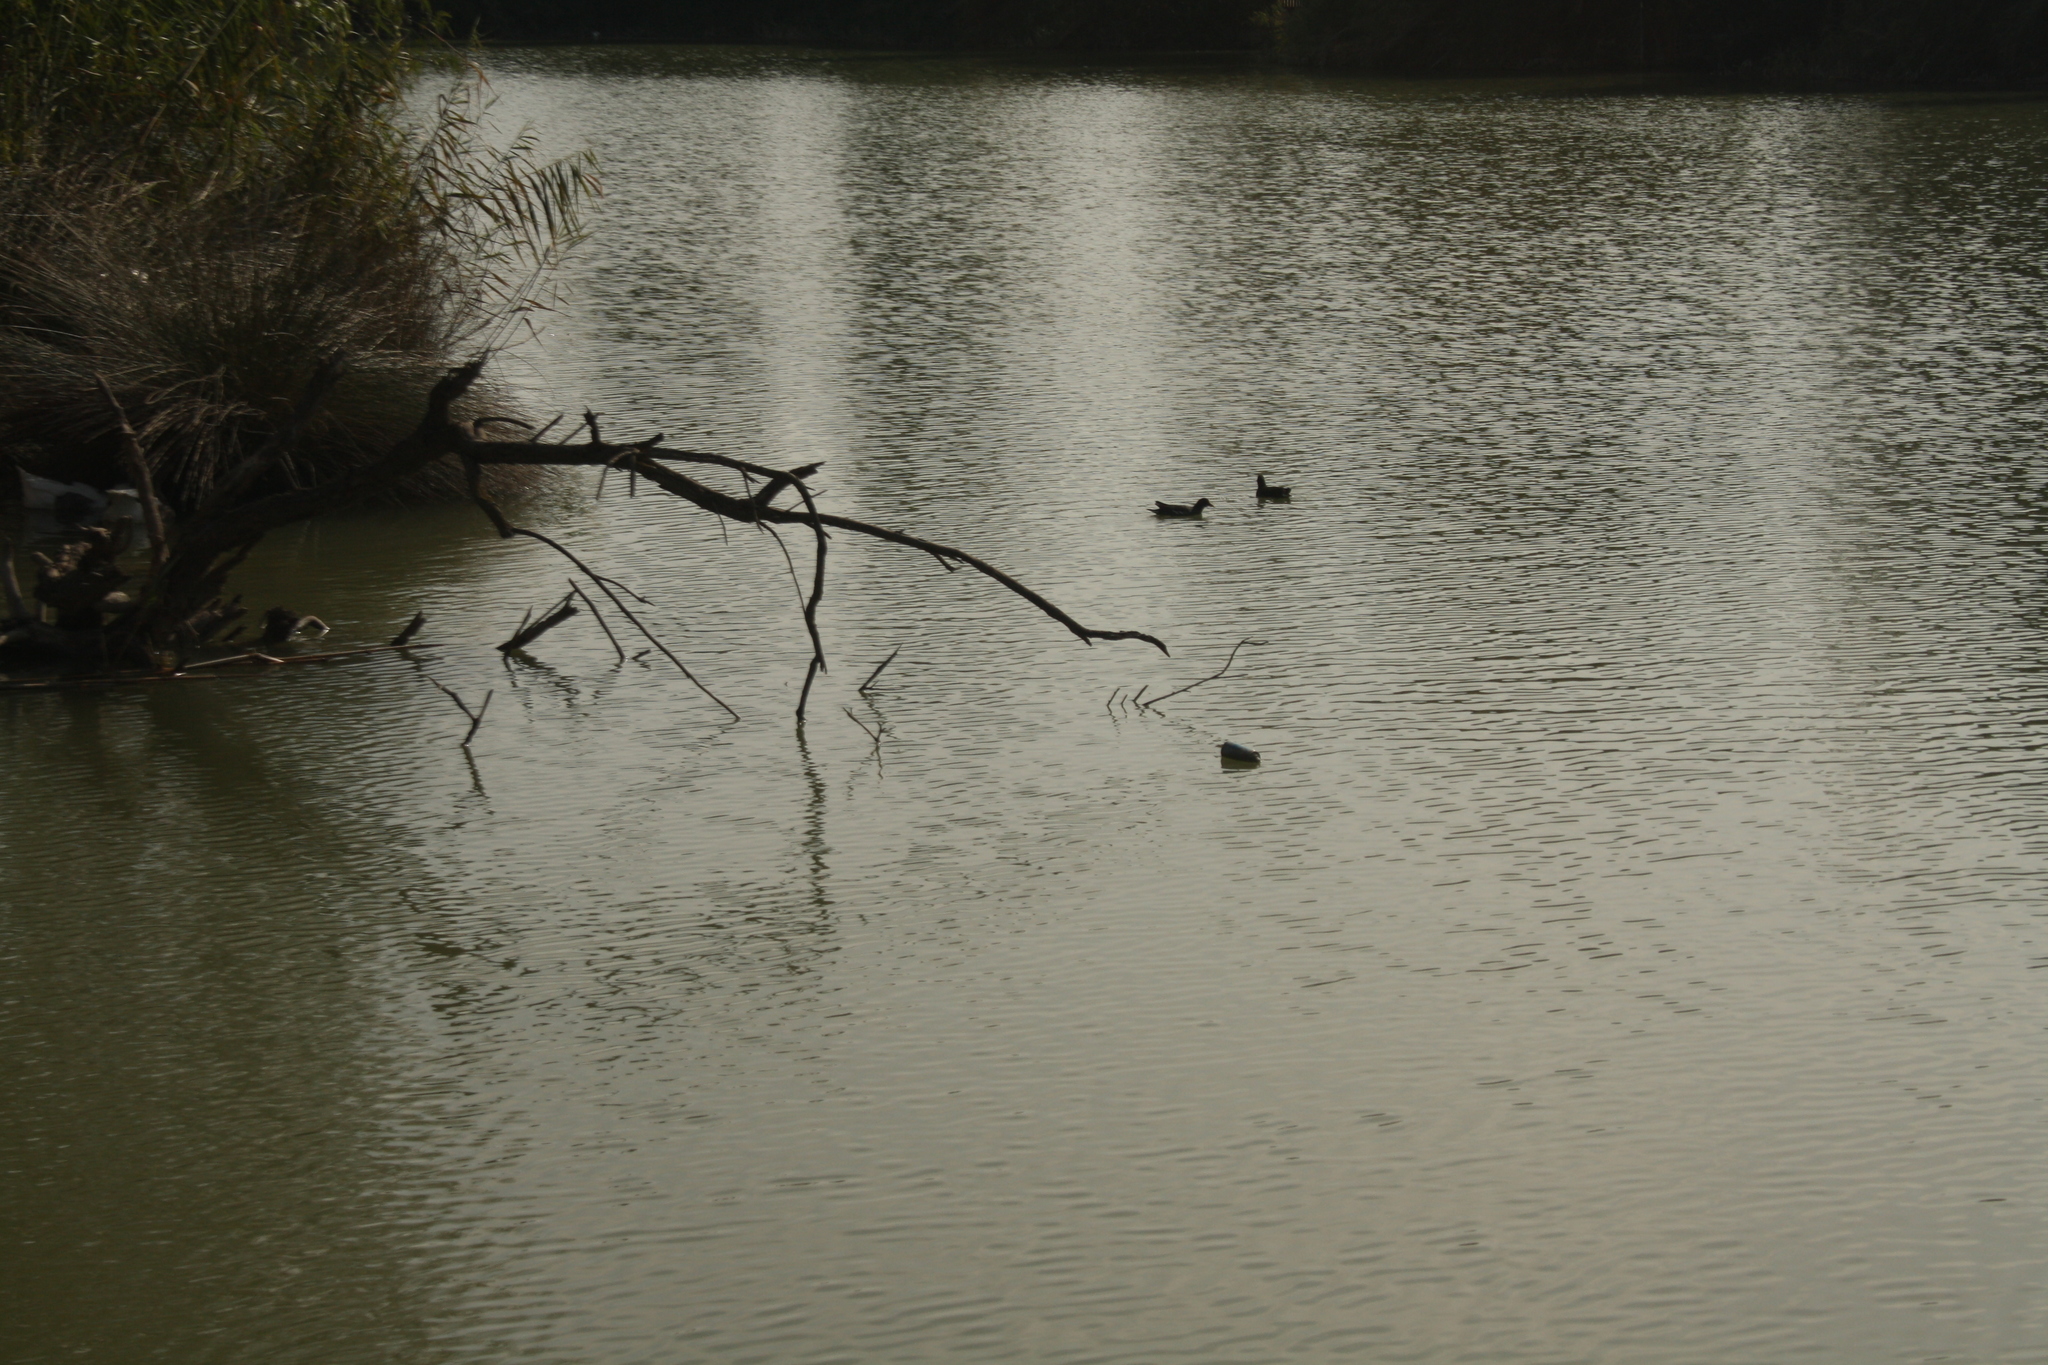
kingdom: Animalia
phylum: Chordata
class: Aves
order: Gruiformes
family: Rallidae
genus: Fulica
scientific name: Fulica atra
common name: Eurasian coot
